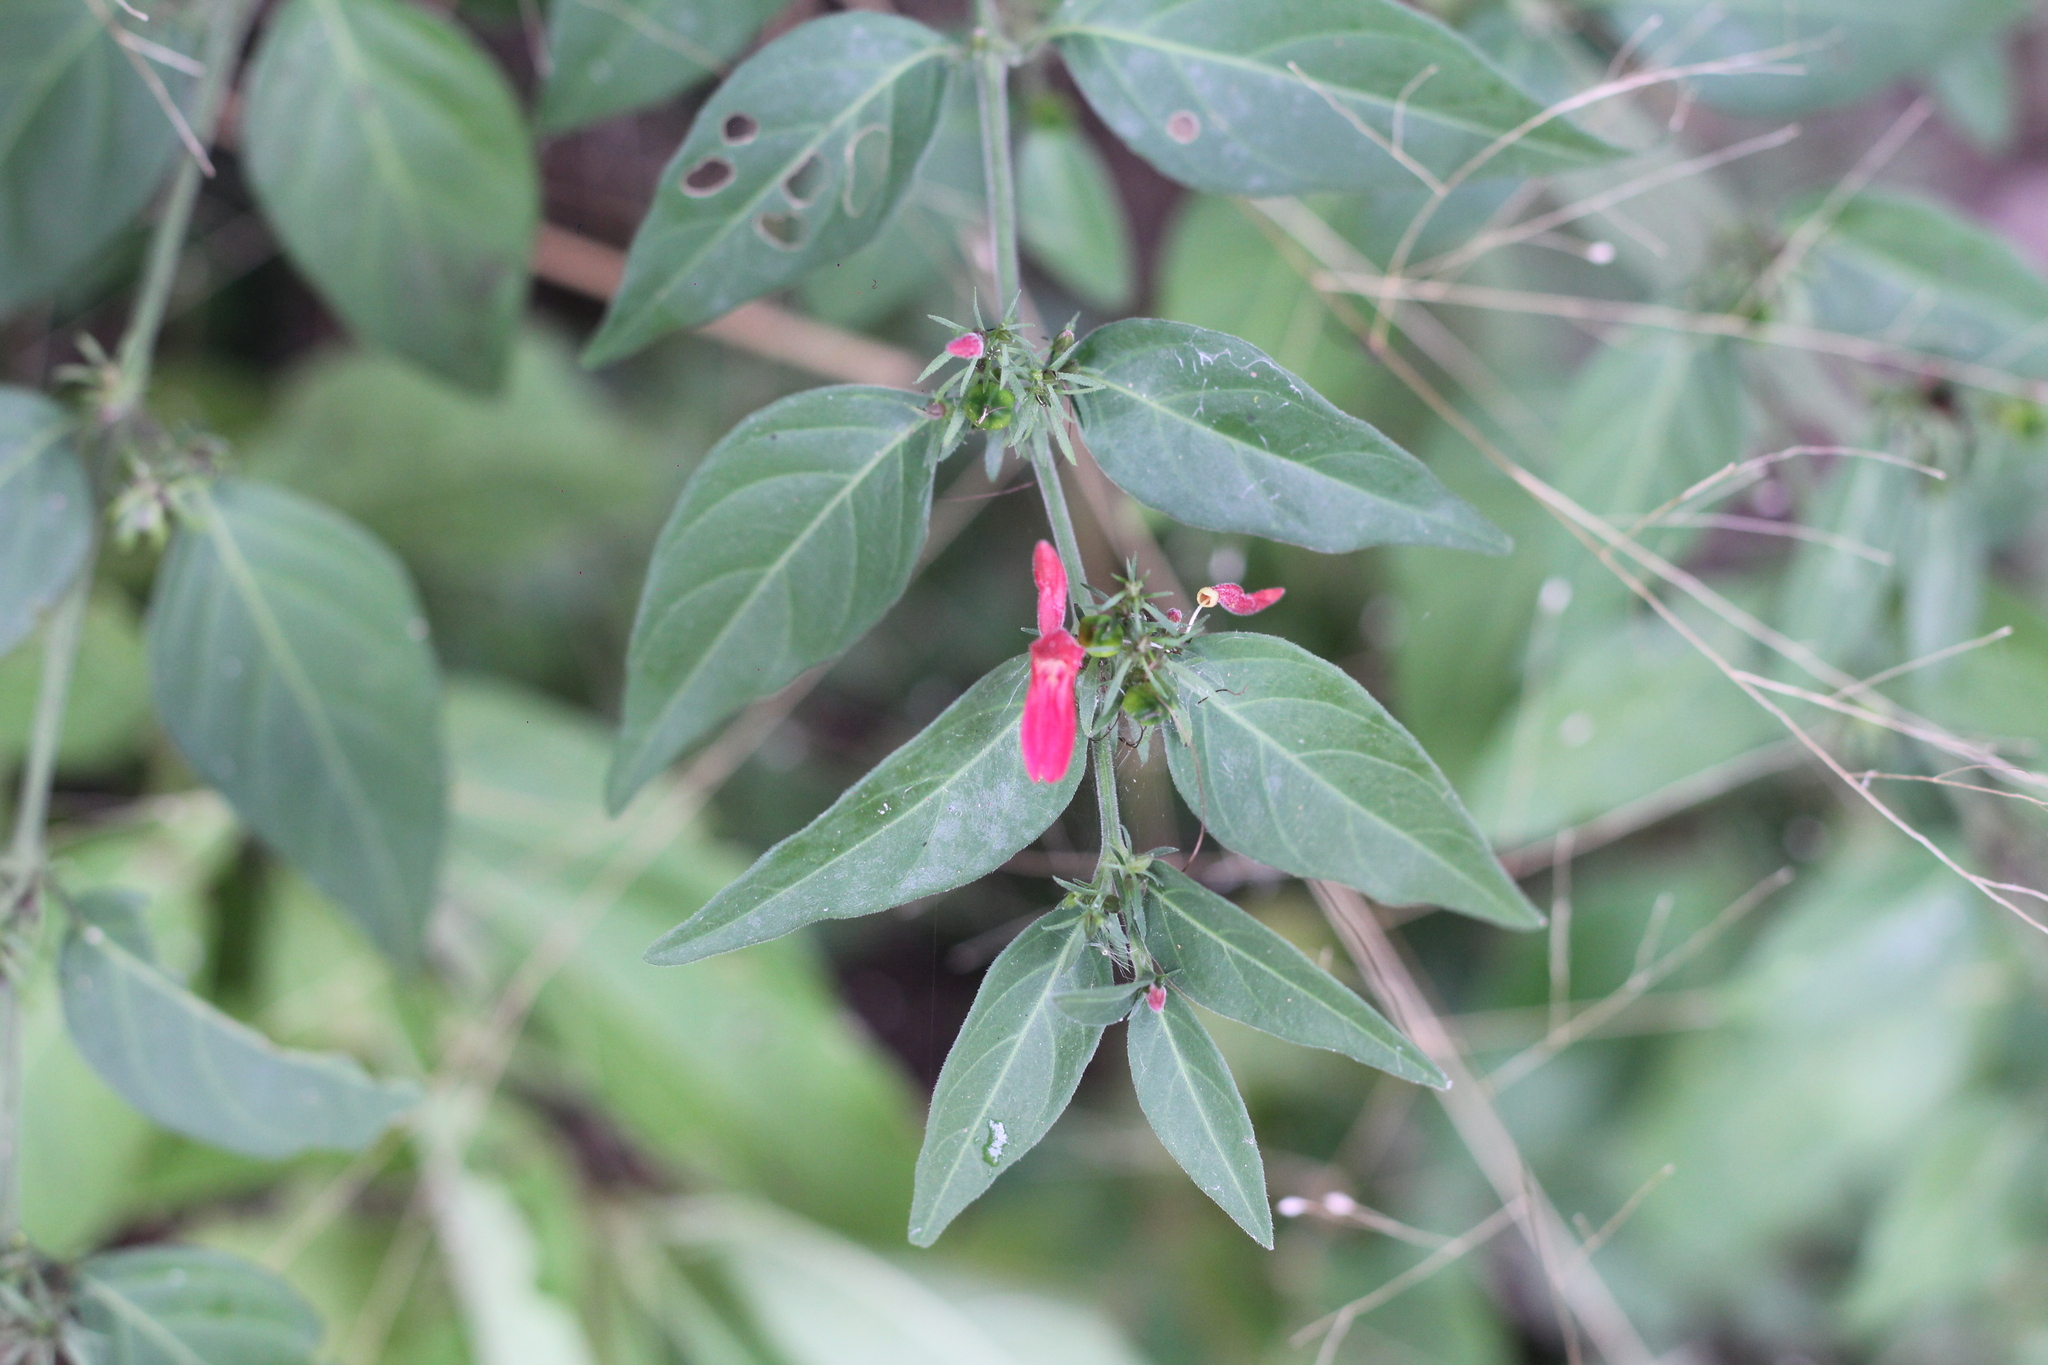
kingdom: Plantae
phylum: Tracheophyta
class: Magnoliopsida
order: Lamiales
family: Acanthaceae
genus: Justicia
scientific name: Justicia brasiliana
